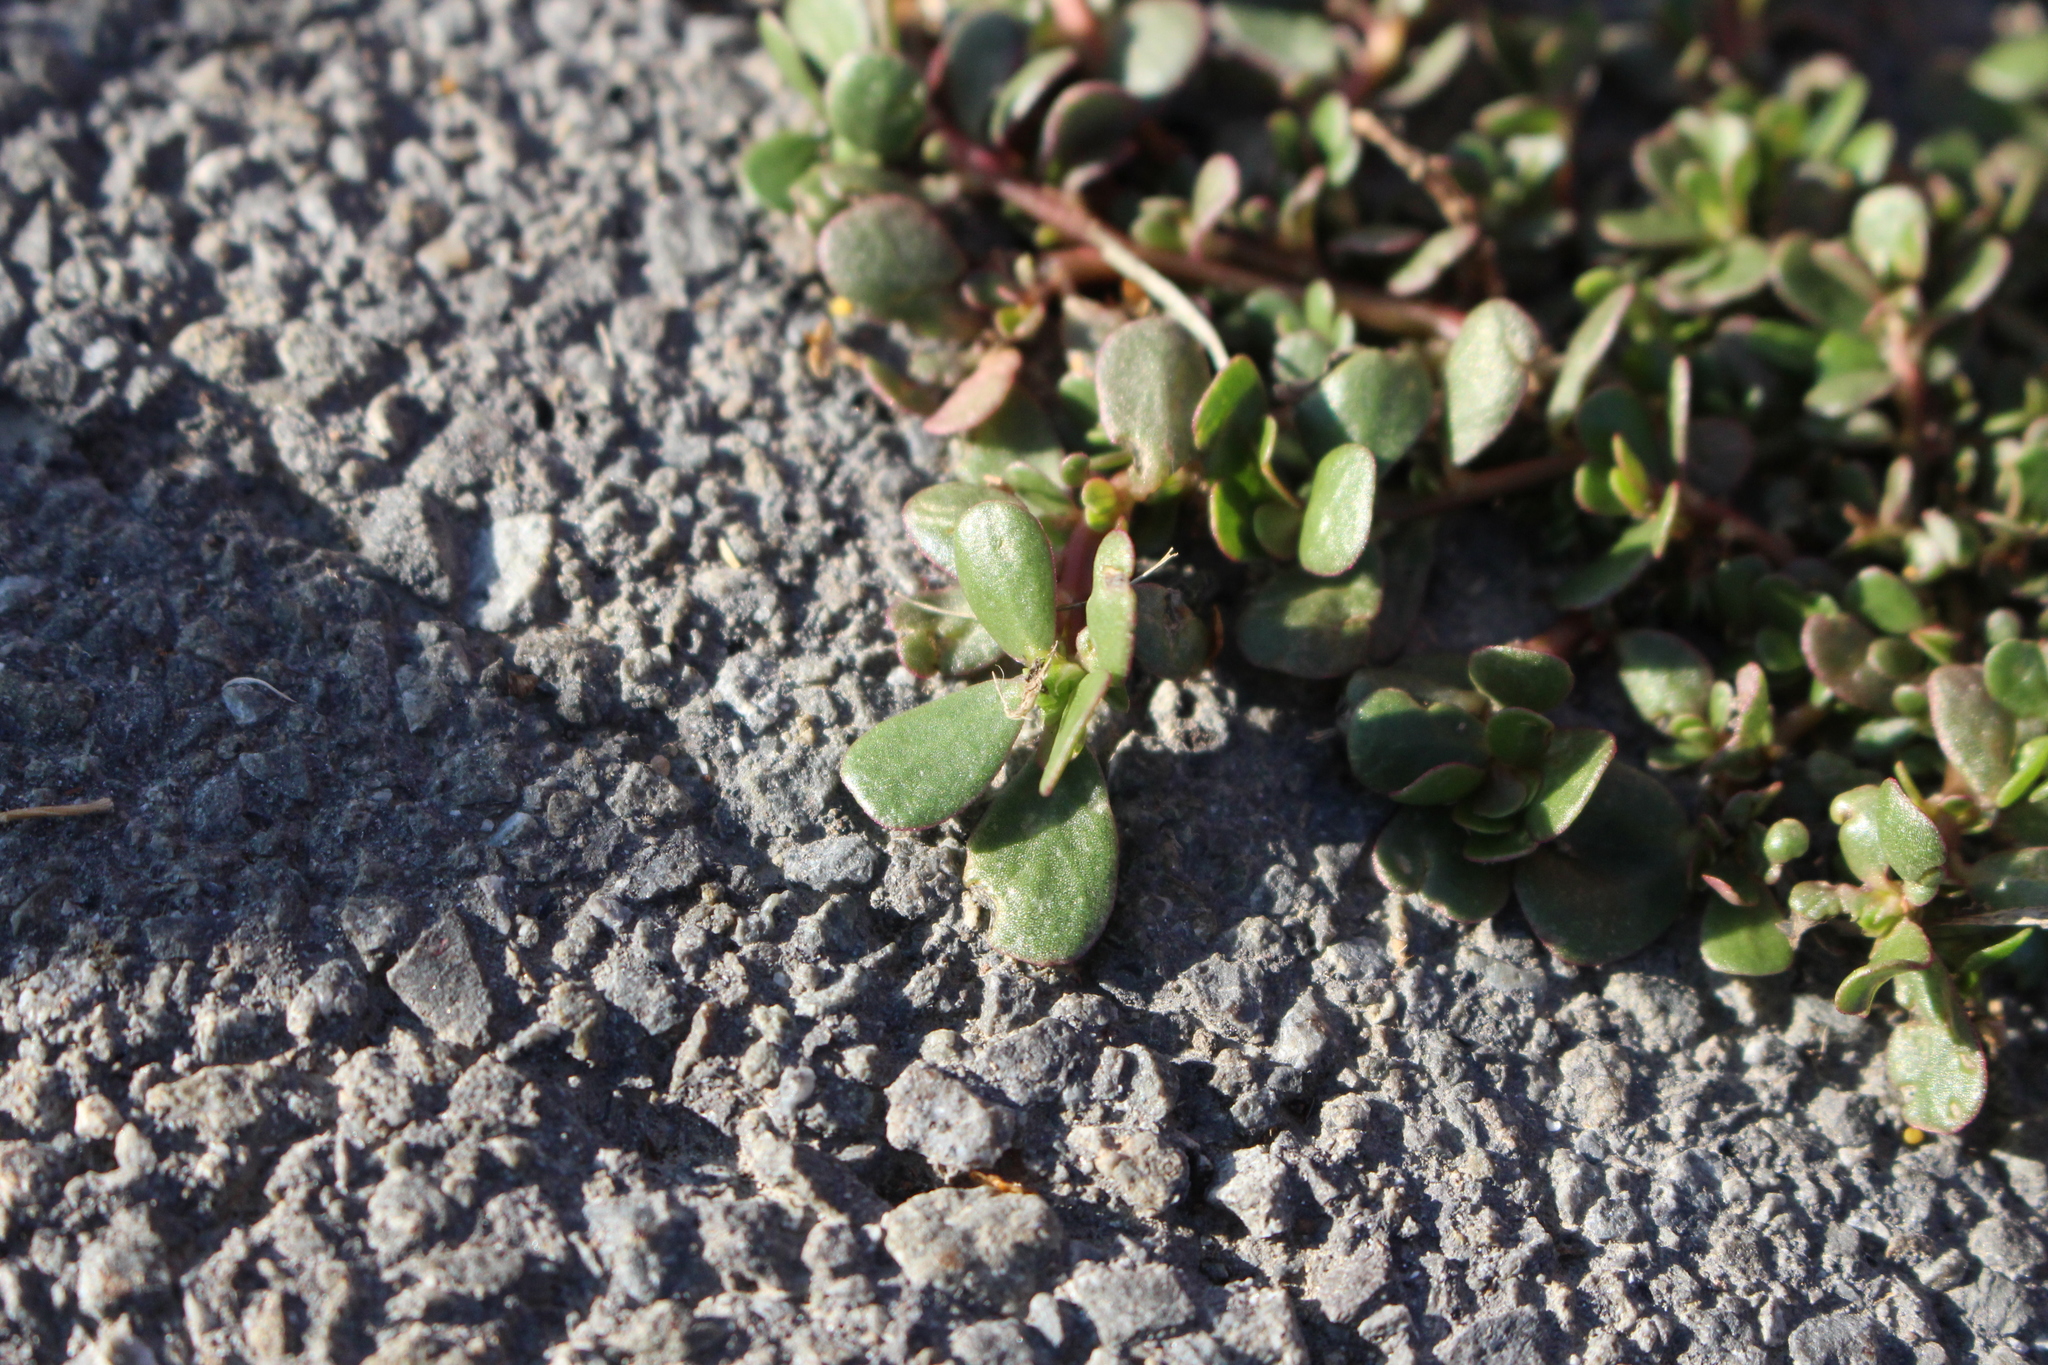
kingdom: Plantae
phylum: Tracheophyta
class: Magnoliopsida
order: Caryophyllales
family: Portulacaceae
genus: Portulaca
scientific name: Portulaca oleracea
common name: Common purslane
